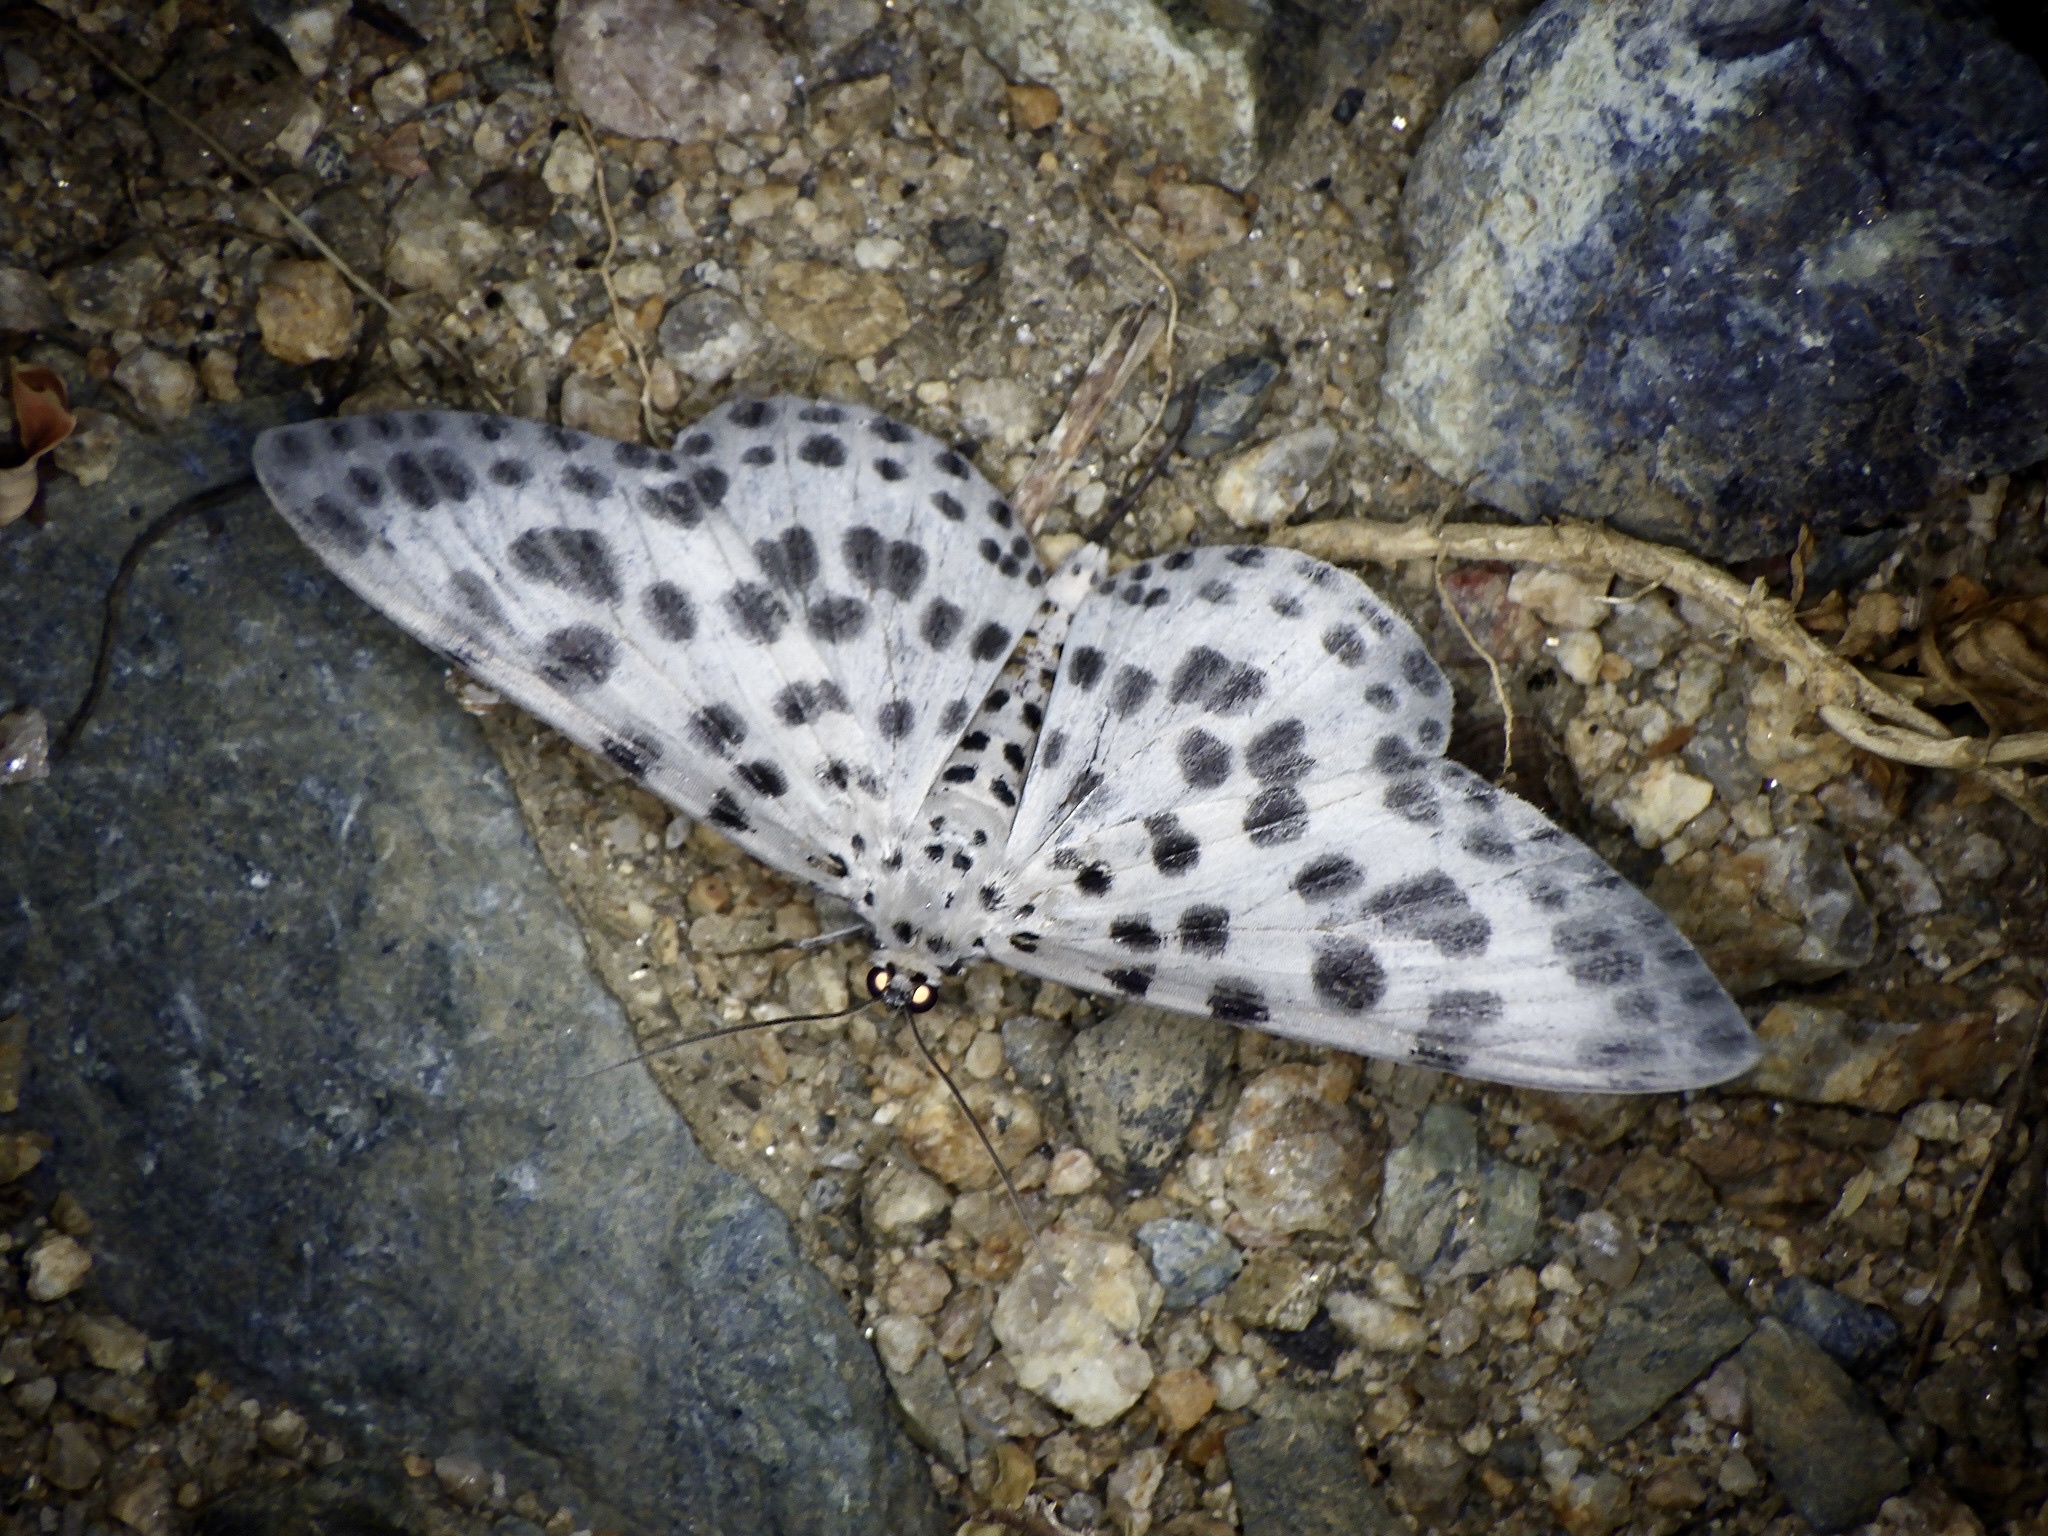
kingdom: Animalia
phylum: Arthropoda
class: Insecta
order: Lepidoptera
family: Geometridae
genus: Antipercnia
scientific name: Antipercnia albinigrata
